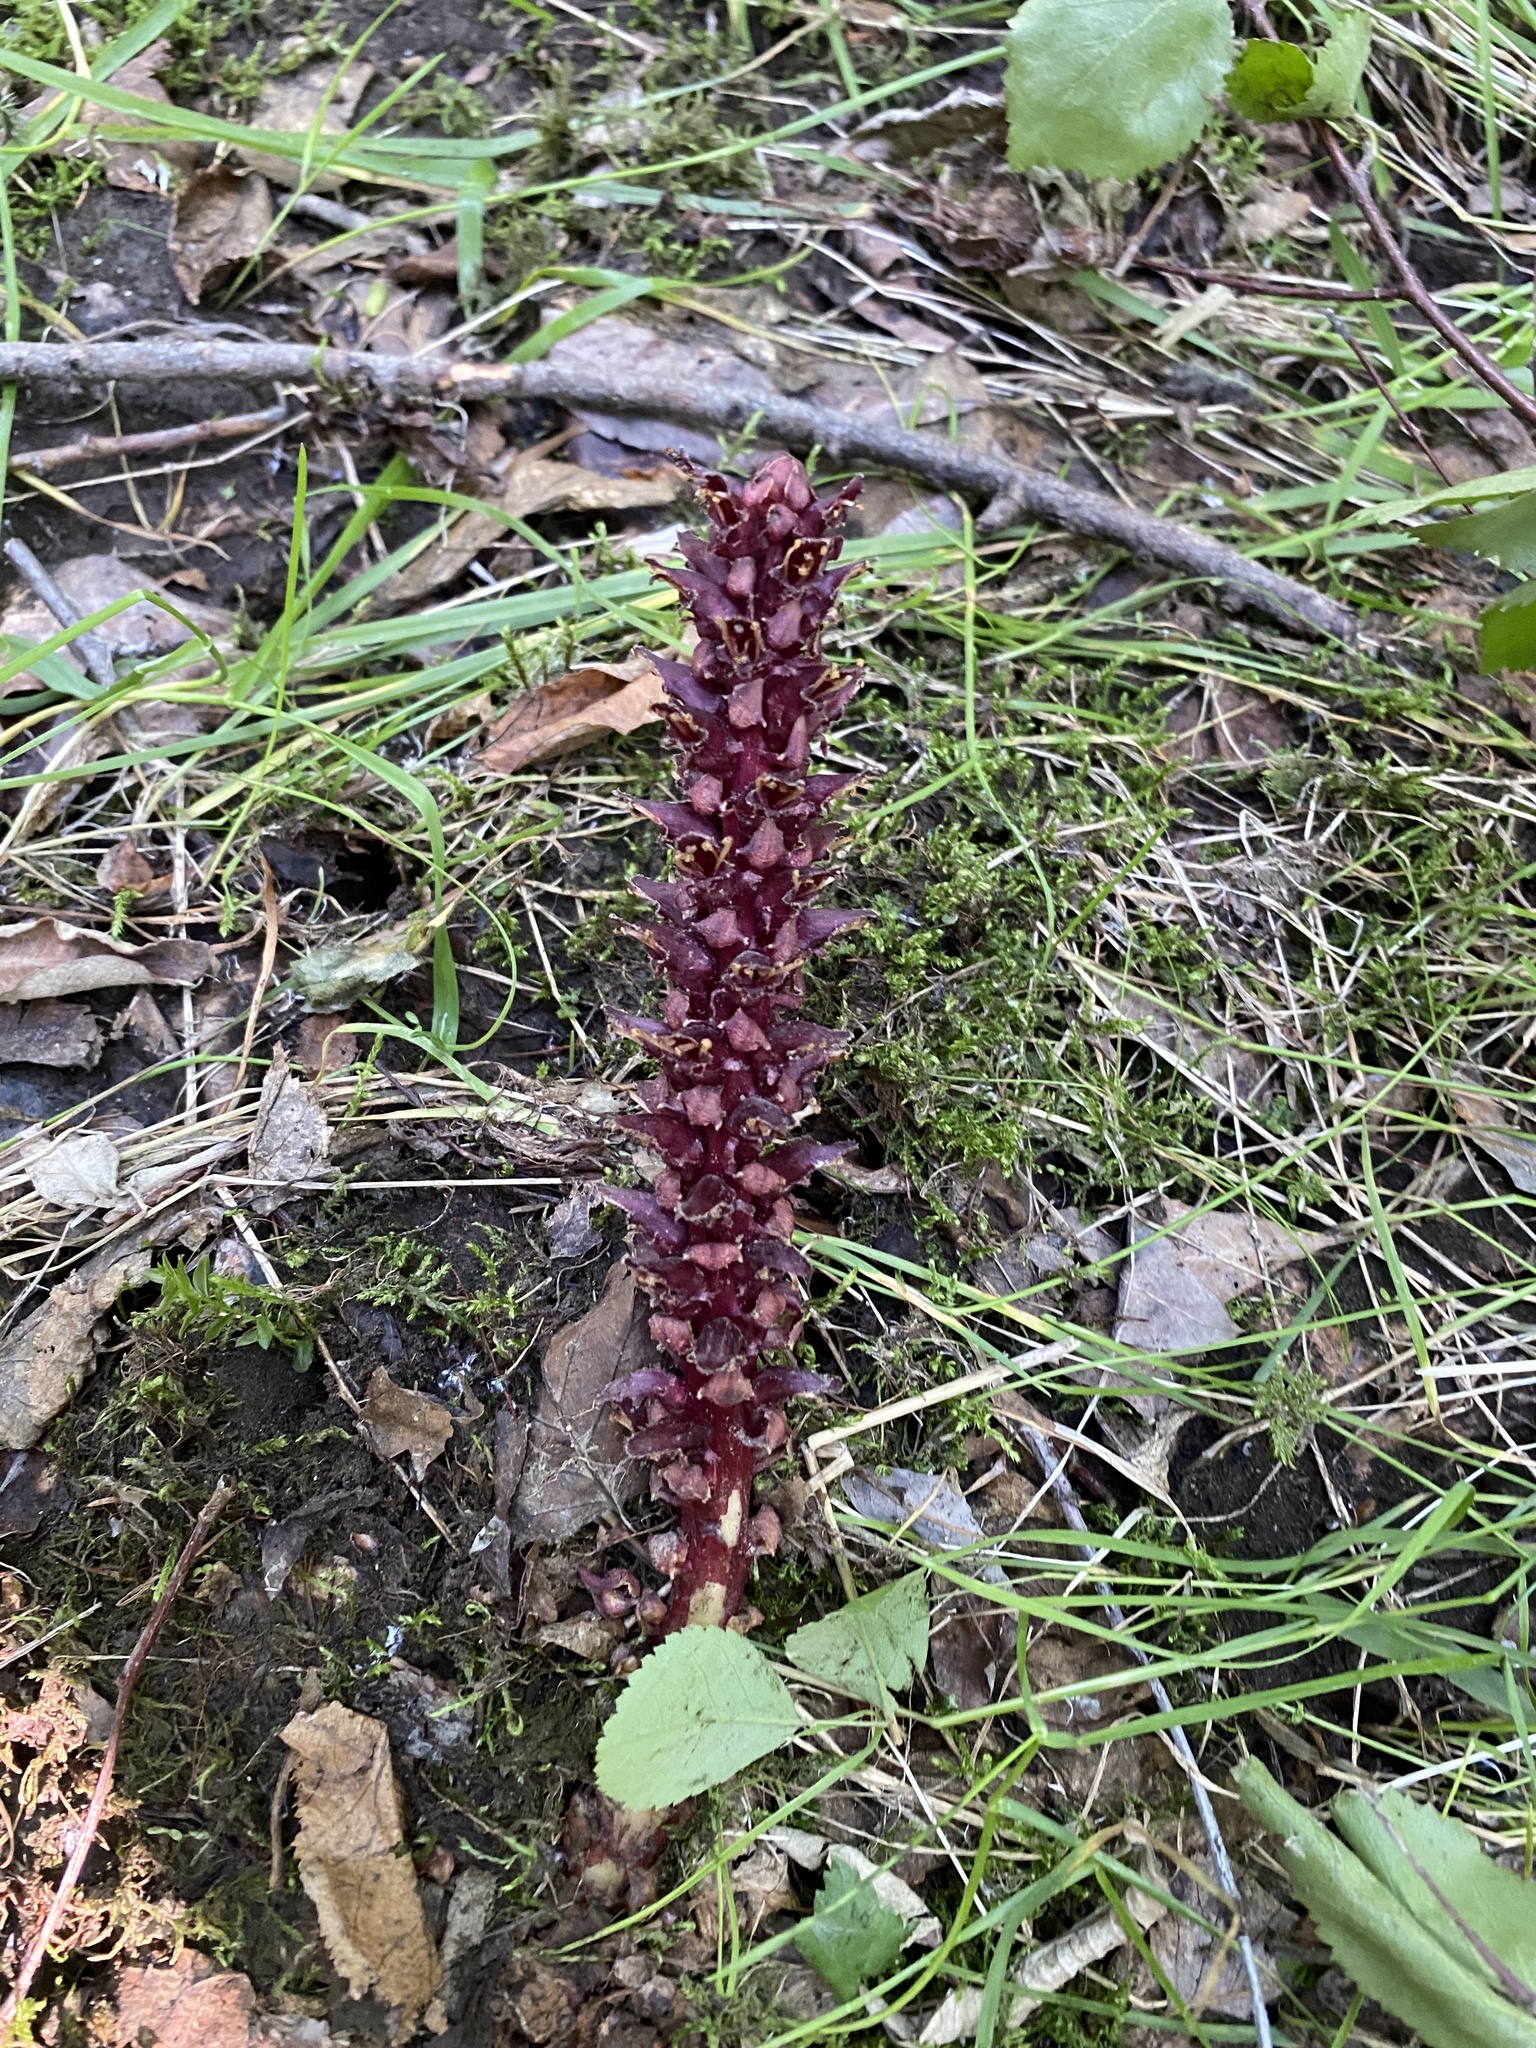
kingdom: Plantae
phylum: Tracheophyta
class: Magnoliopsida
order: Lamiales
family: Orobanchaceae
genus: Boschniakia
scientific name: Boschniakia rossica
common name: Poque
